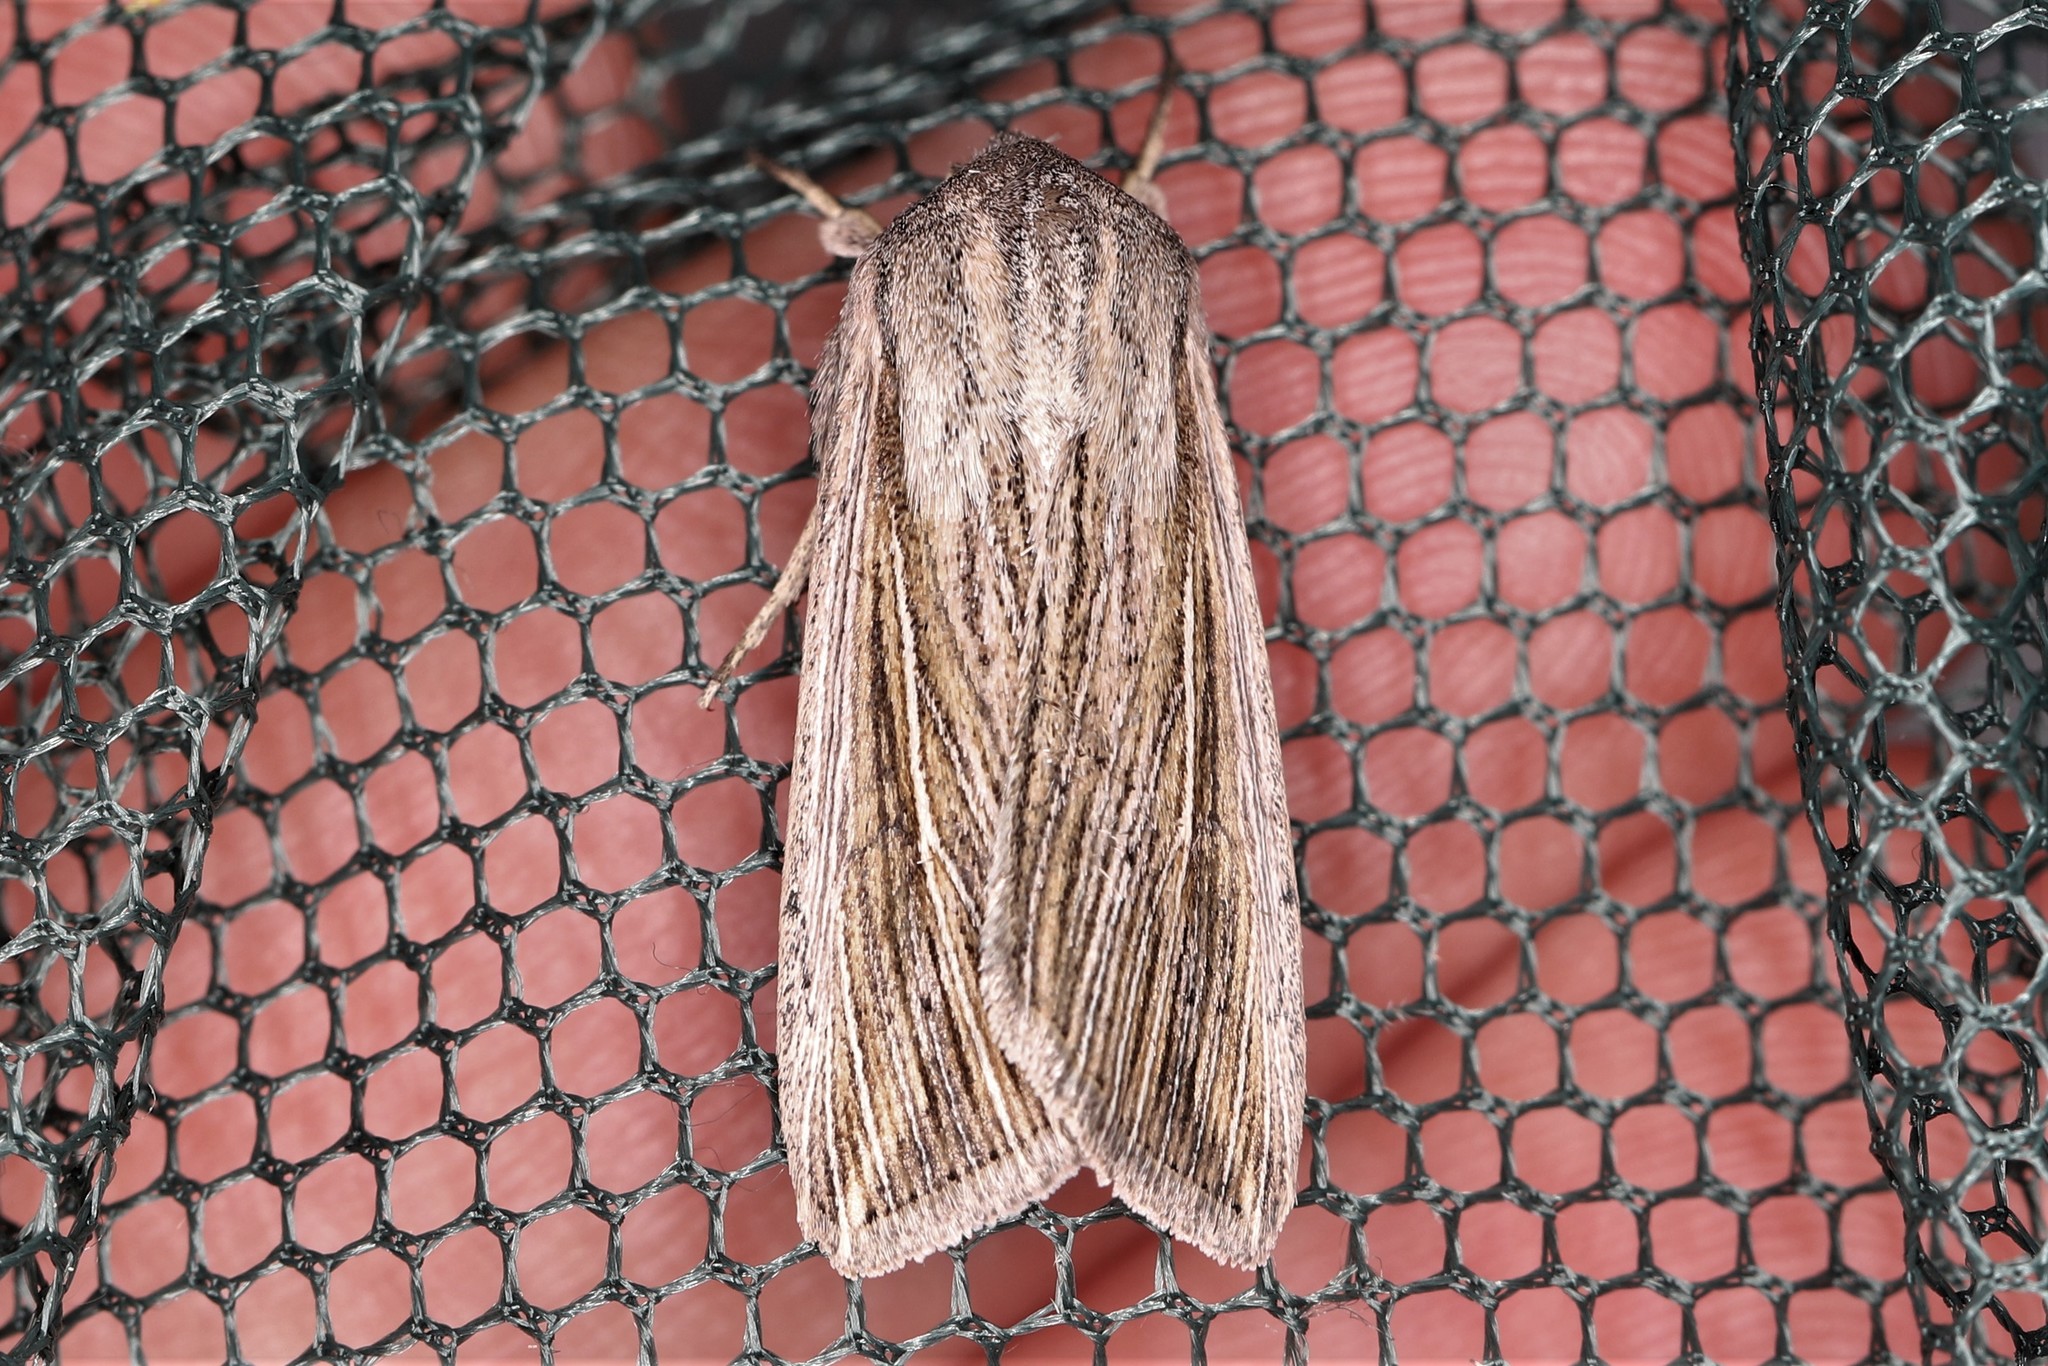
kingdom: Animalia
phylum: Arthropoda
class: Insecta
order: Lepidoptera
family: Noctuidae
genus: Mythimna
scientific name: Mythimna riparia
